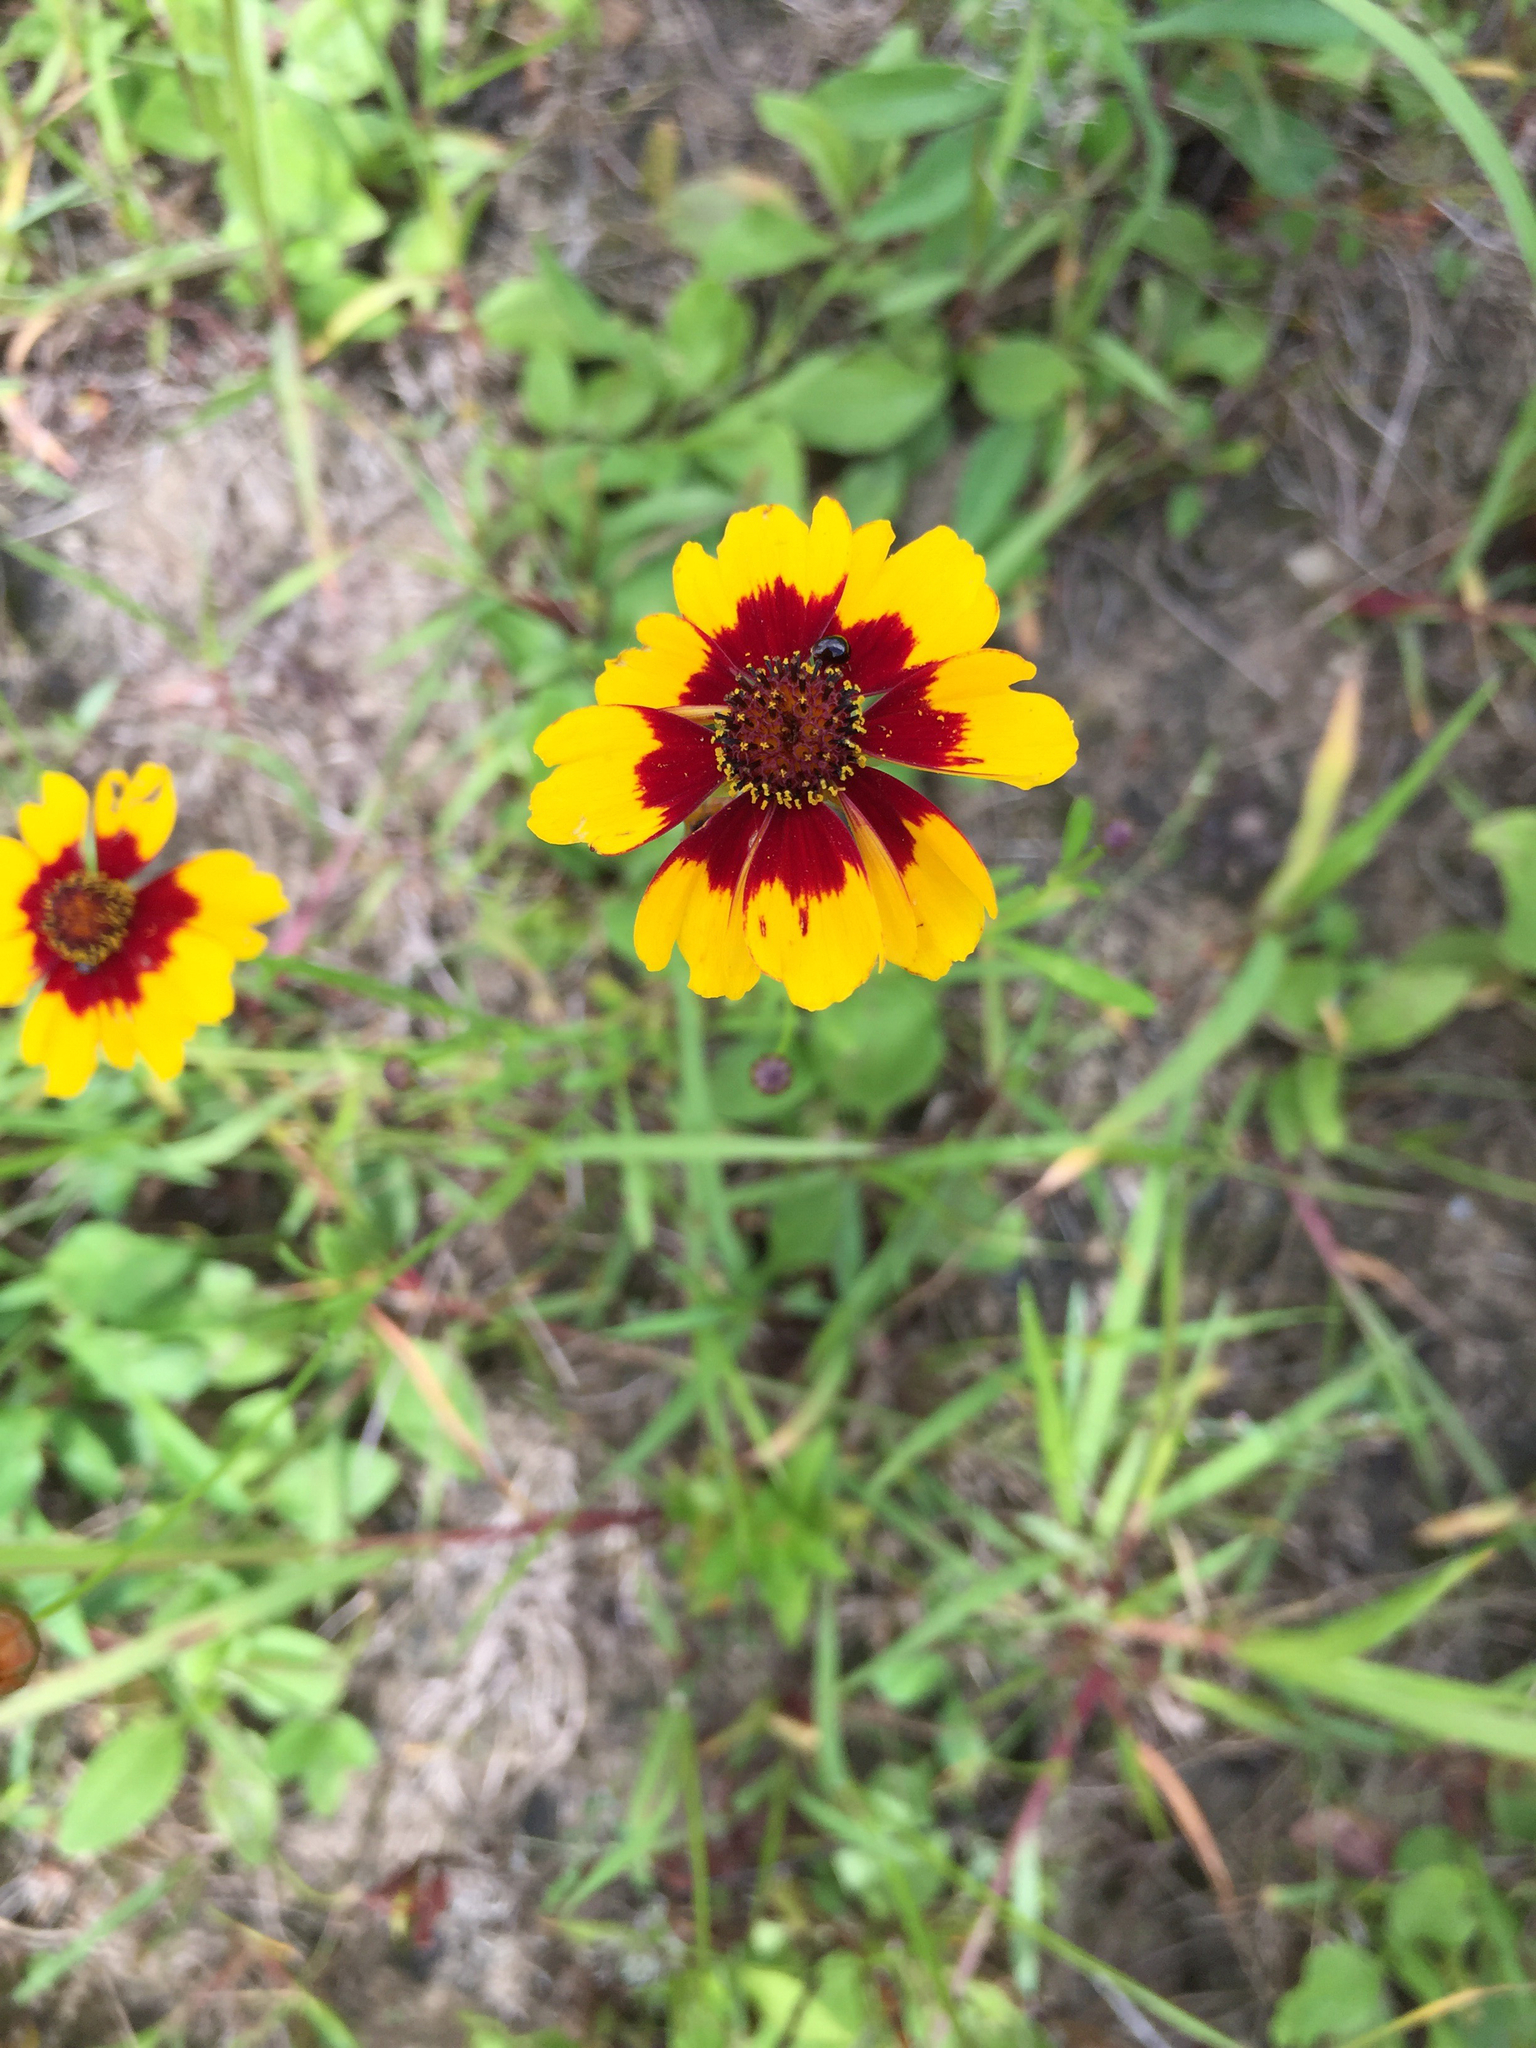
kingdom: Plantae
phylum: Tracheophyta
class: Magnoliopsida
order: Asterales
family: Asteraceae
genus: Coreopsis
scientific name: Coreopsis tinctoria
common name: Garden tickseed
